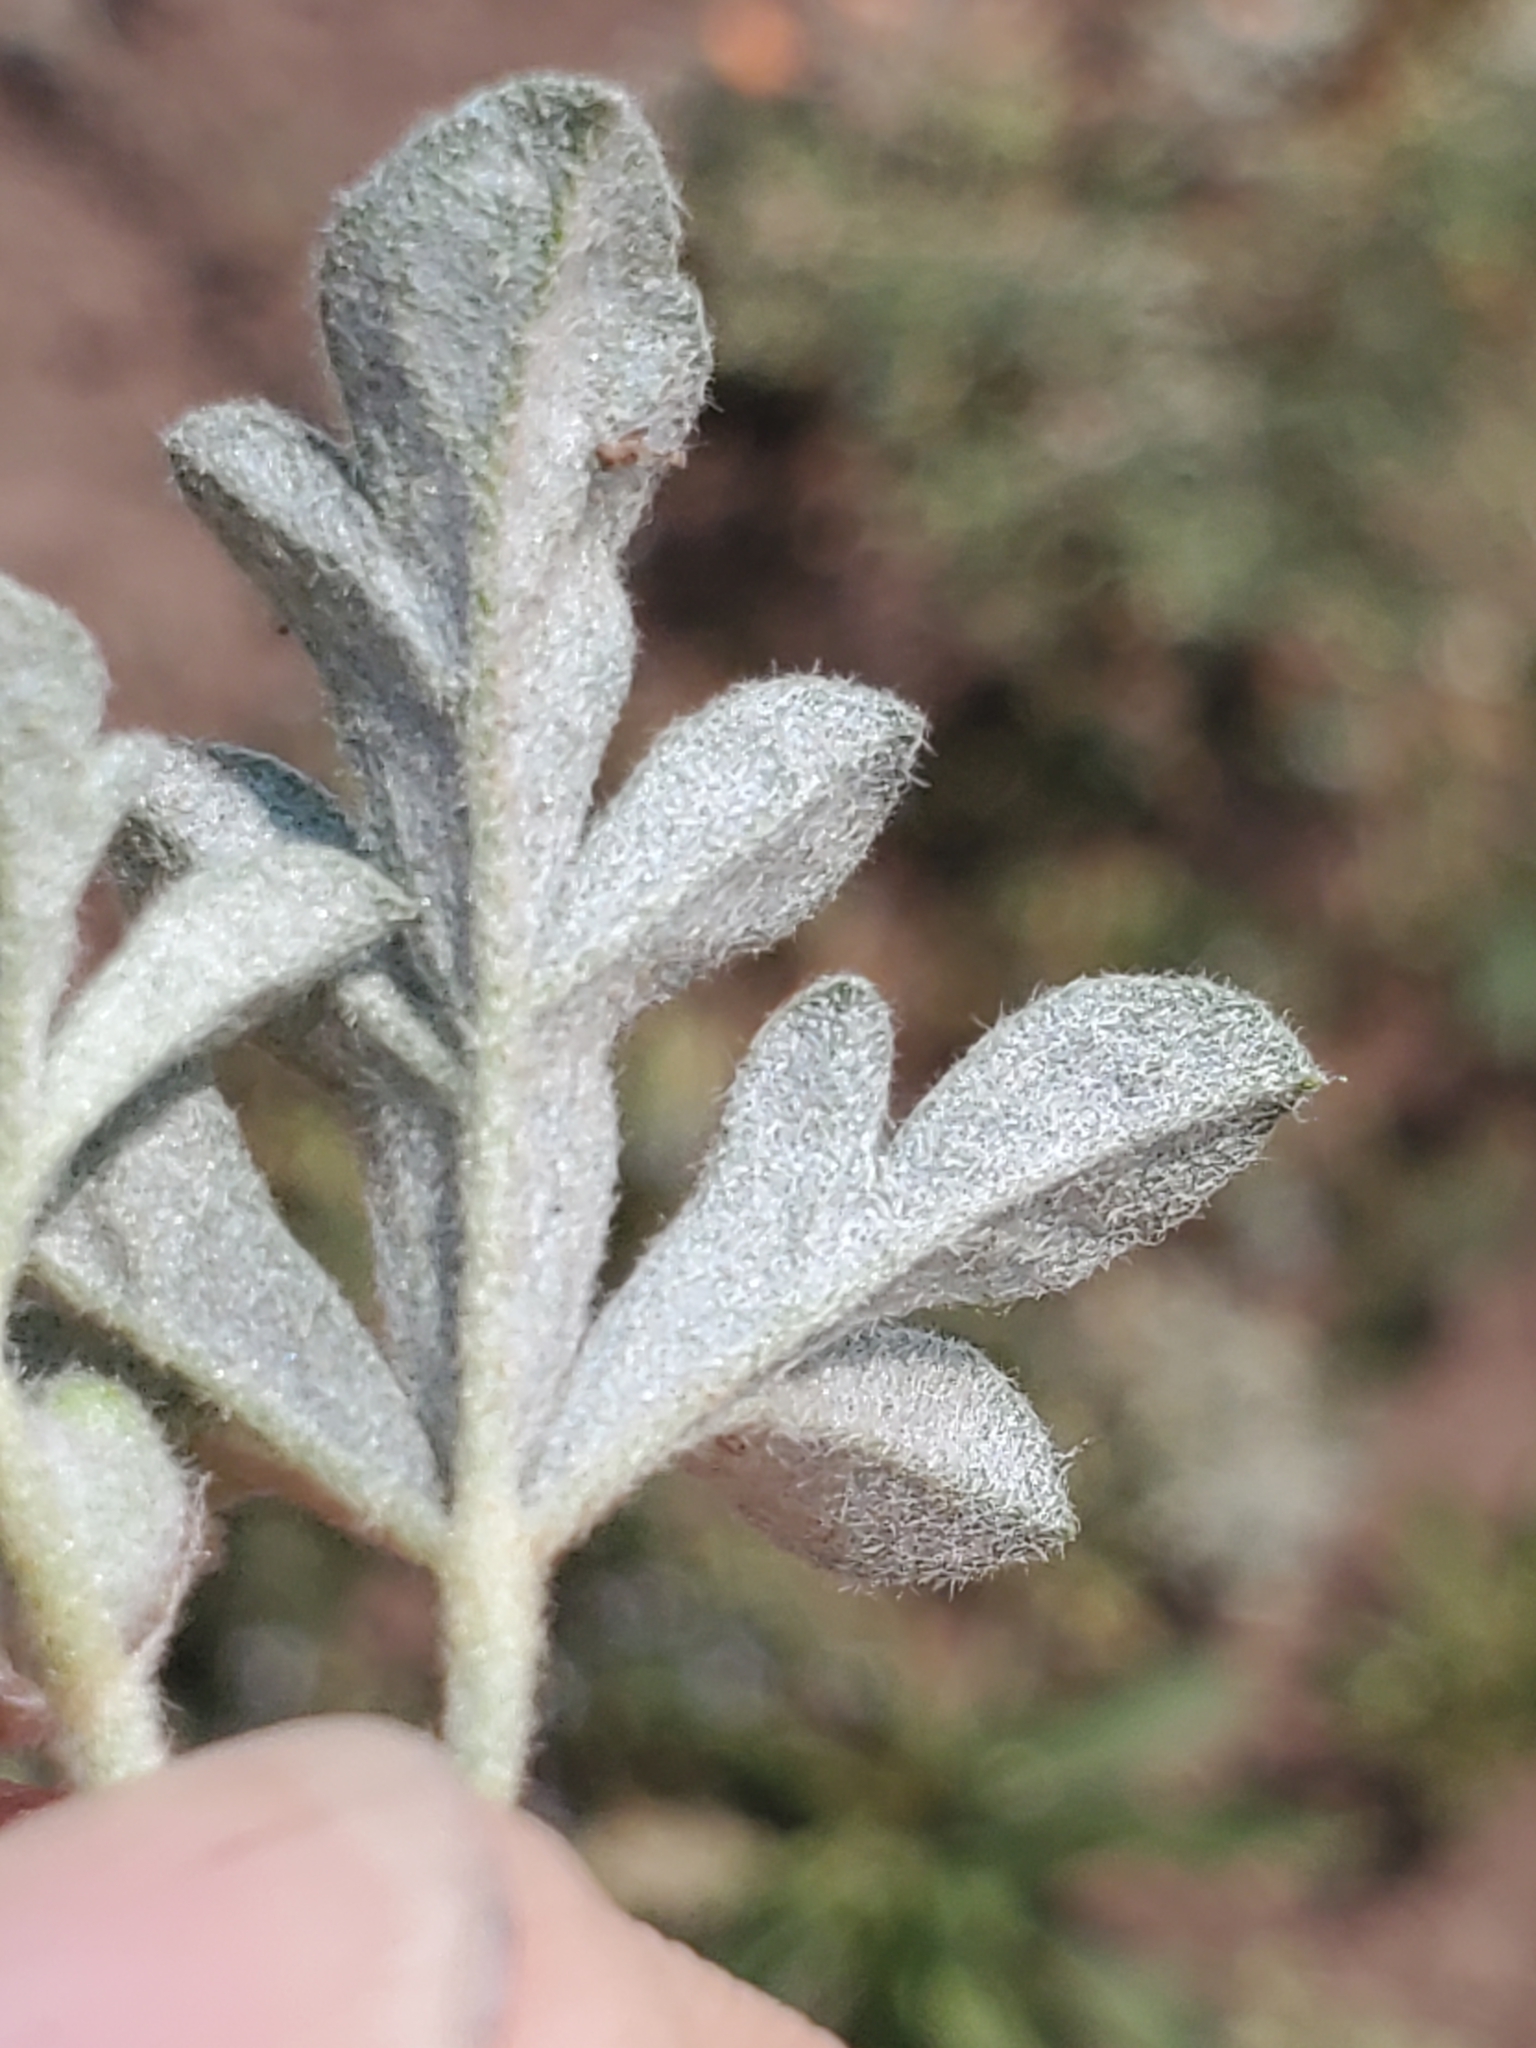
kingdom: Plantae
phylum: Tracheophyta
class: Magnoliopsida
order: Malvales
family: Malvaceae
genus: Sphaeralcea
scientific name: Sphaeralcea coccinea
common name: Moss-rose
